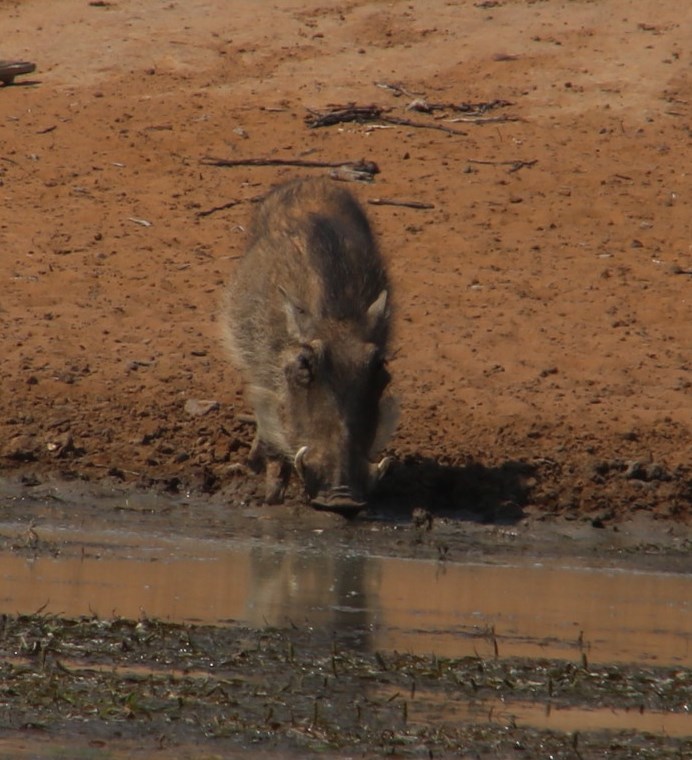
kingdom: Animalia
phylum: Chordata
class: Mammalia
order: Artiodactyla
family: Suidae
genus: Phacochoerus
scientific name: Phacochoerus africanus
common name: Common warthog
